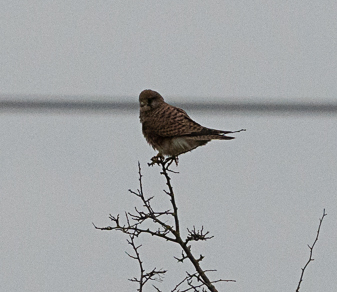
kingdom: Animalia
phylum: Chordata
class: Aves
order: Falconiformes
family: Falconidae
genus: Falco
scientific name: Falco tinnunculus
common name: Common kestrel
